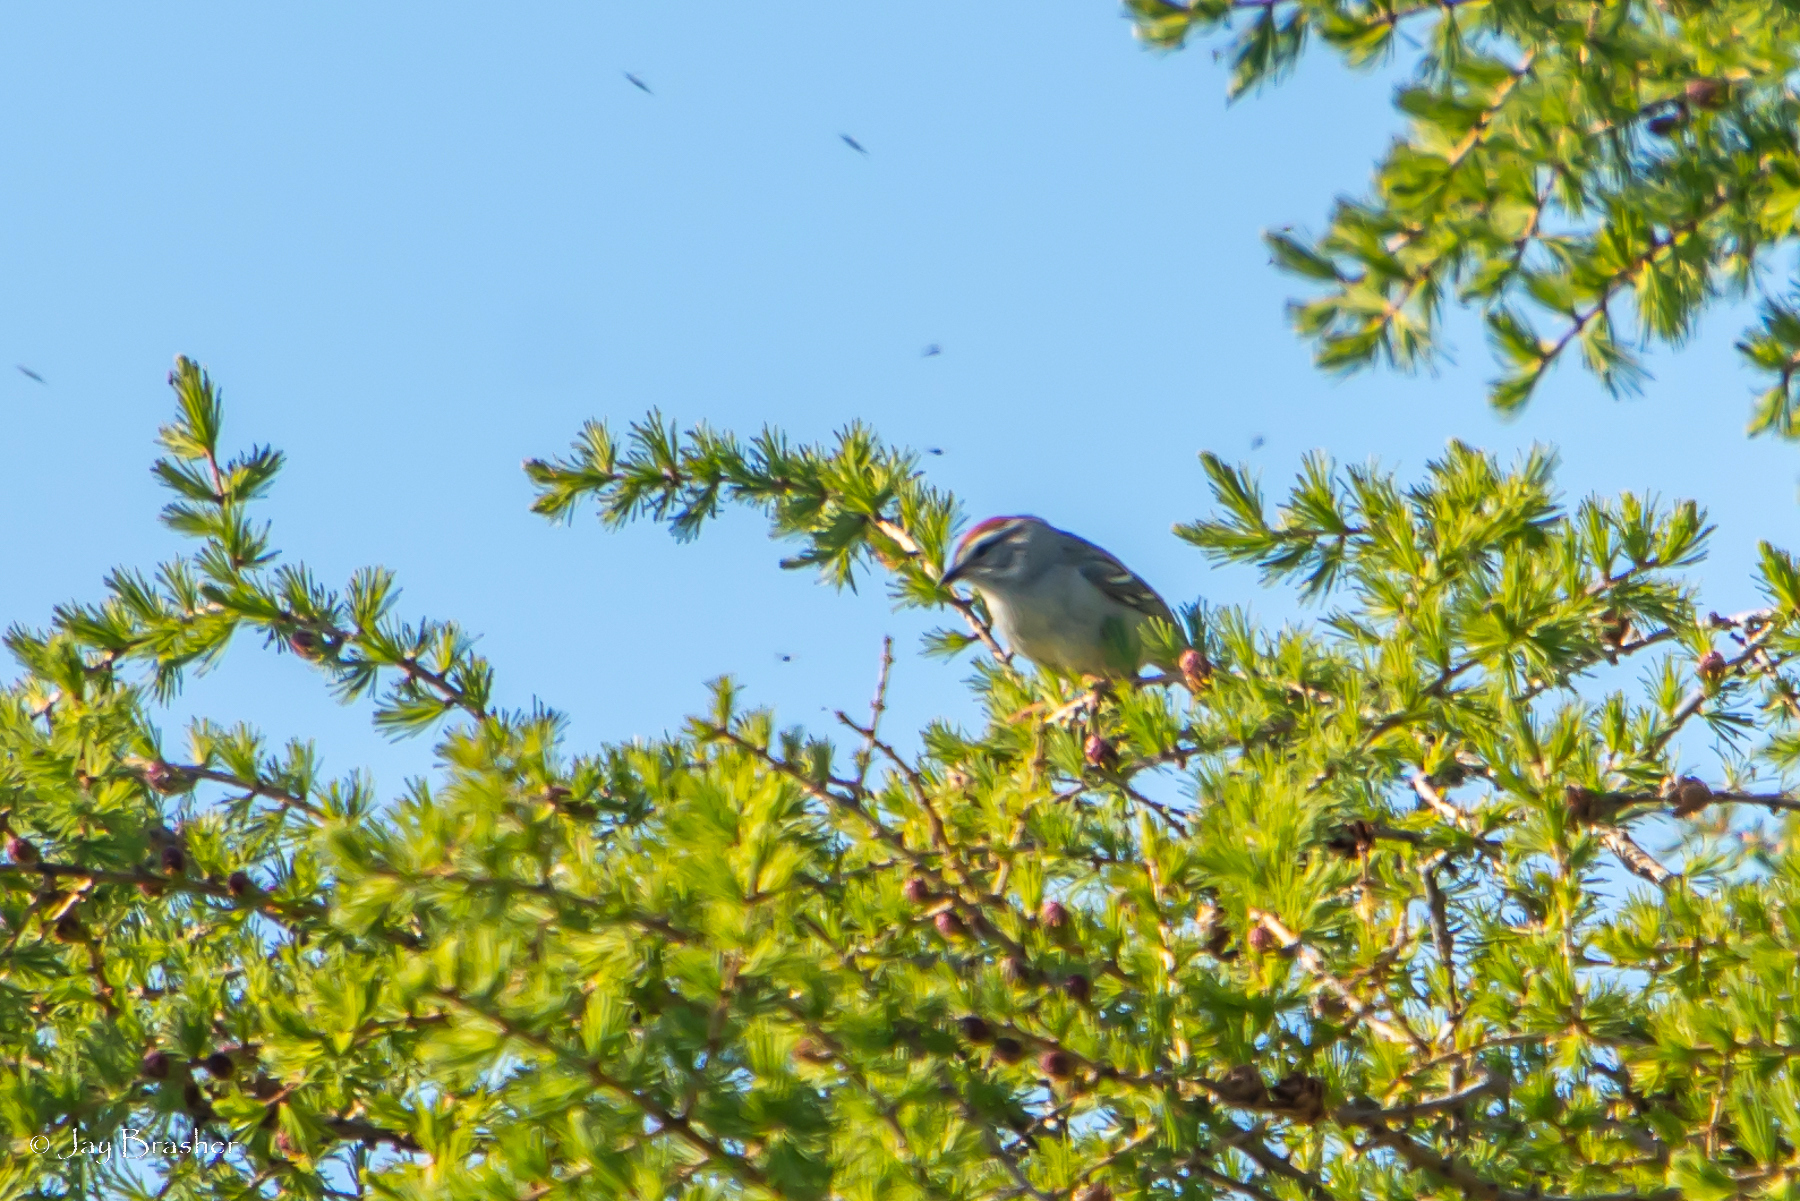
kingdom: Animalia
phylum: Chordata
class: Aves
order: Passeriformes
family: Passerellidae
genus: Spizella
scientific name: Spizella passerina
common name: Chipping sparrow
